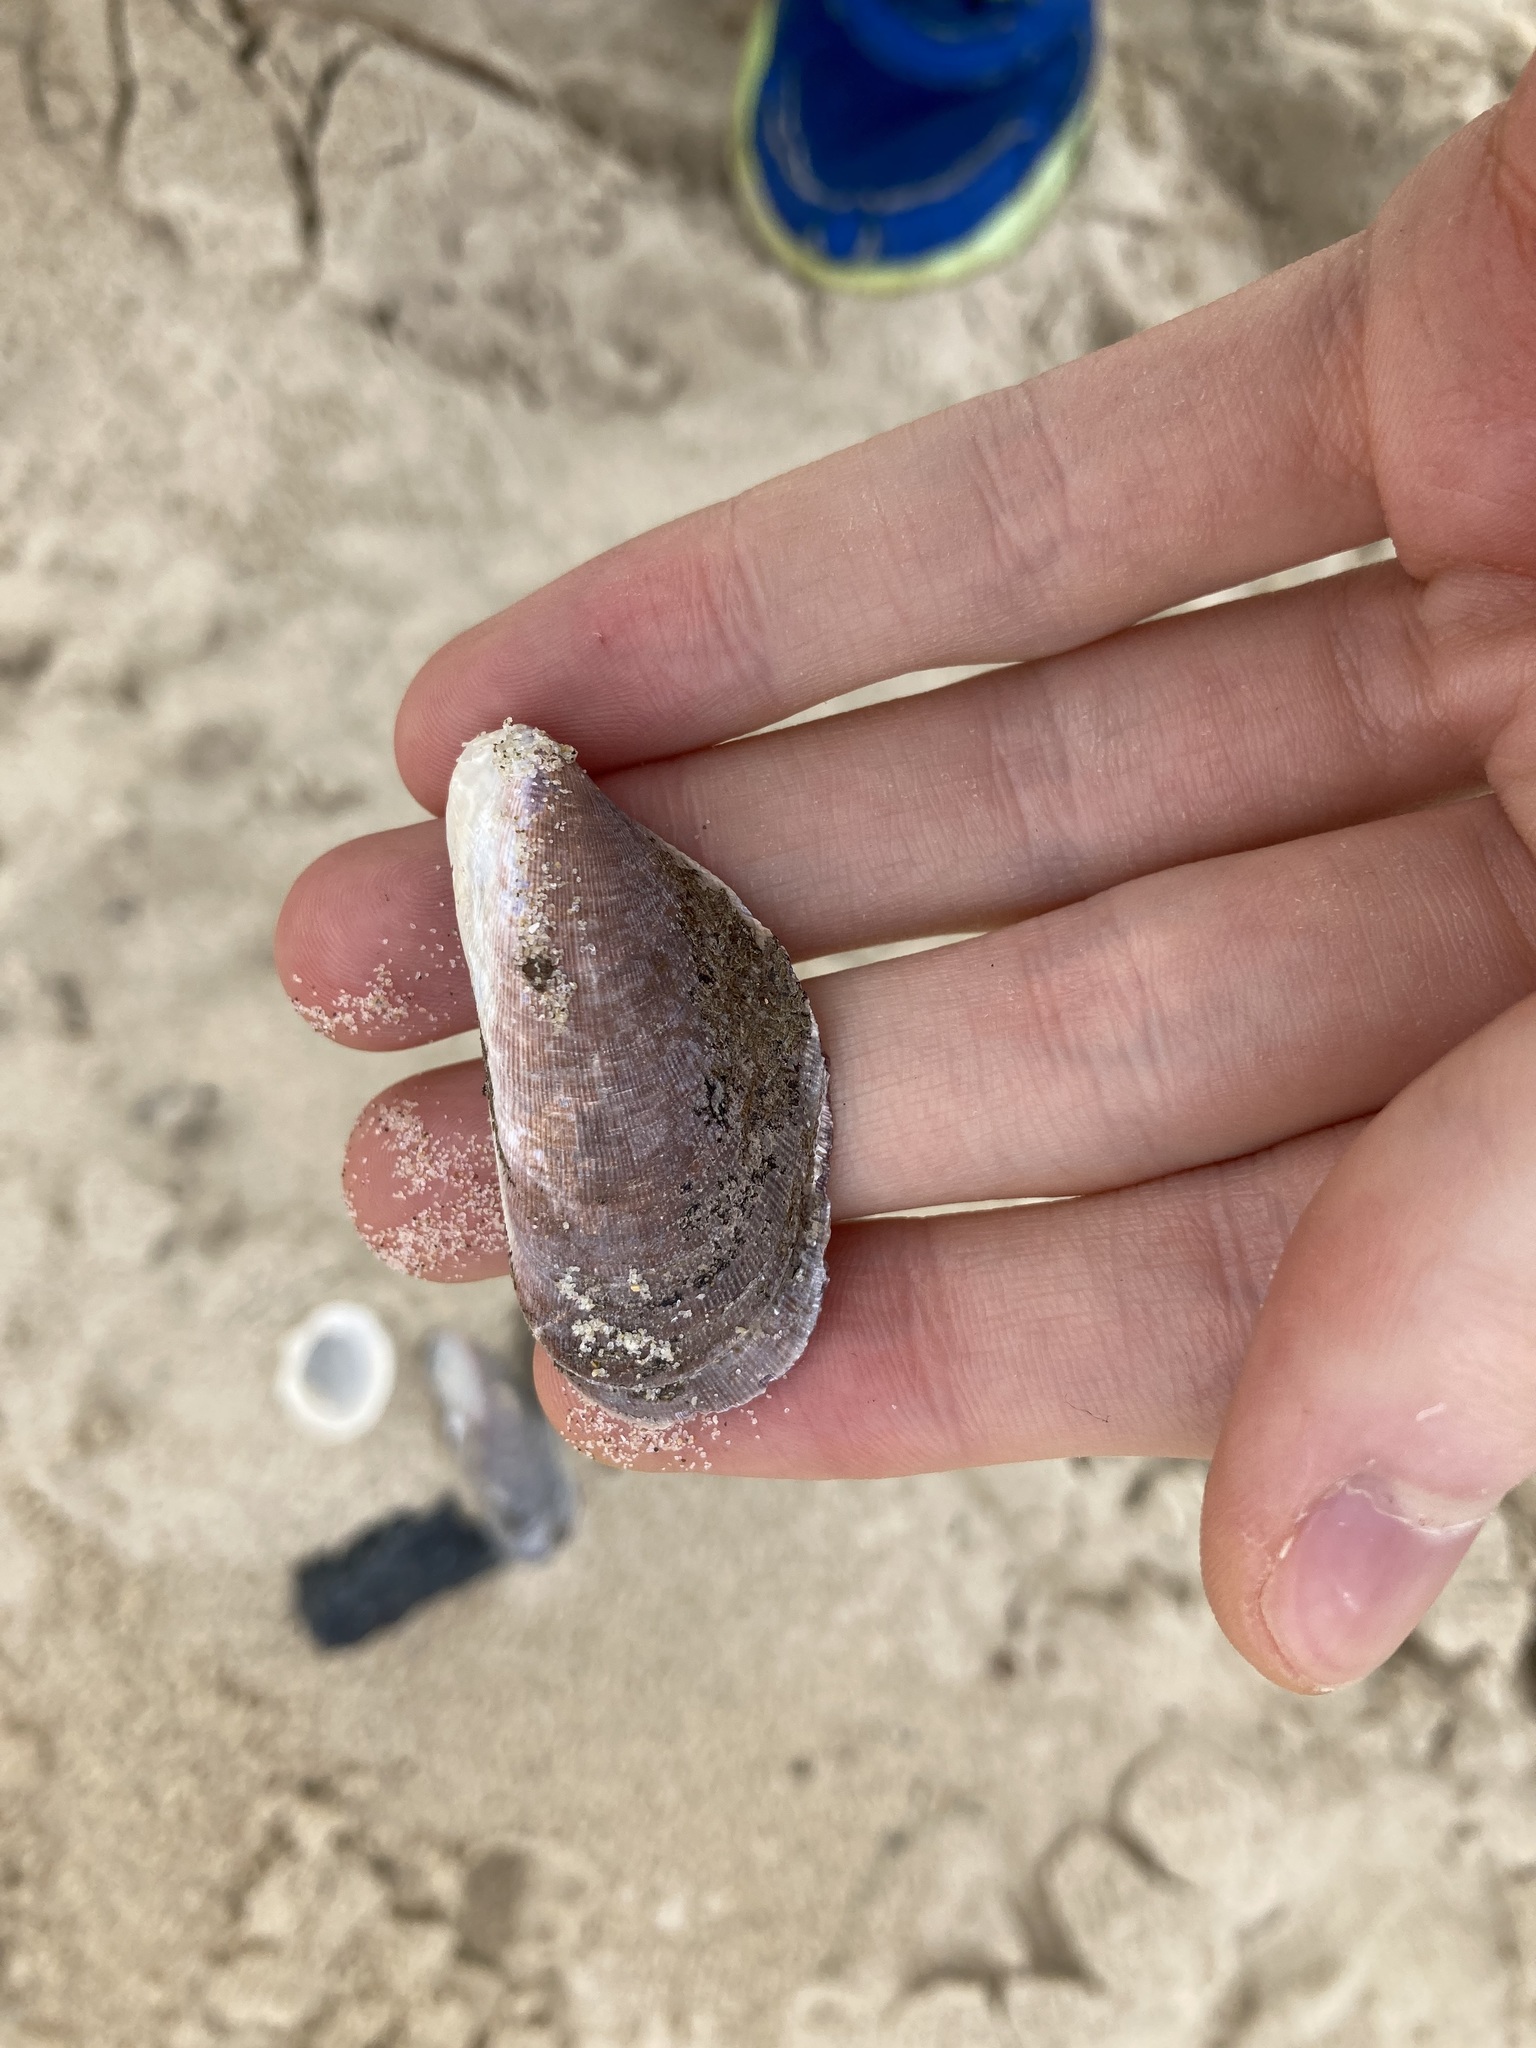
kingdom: Animalia
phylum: Mollusca
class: Bivalvia
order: Mytilida
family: Mytilidae
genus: Trichomya
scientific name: Trichomya hirsuta
